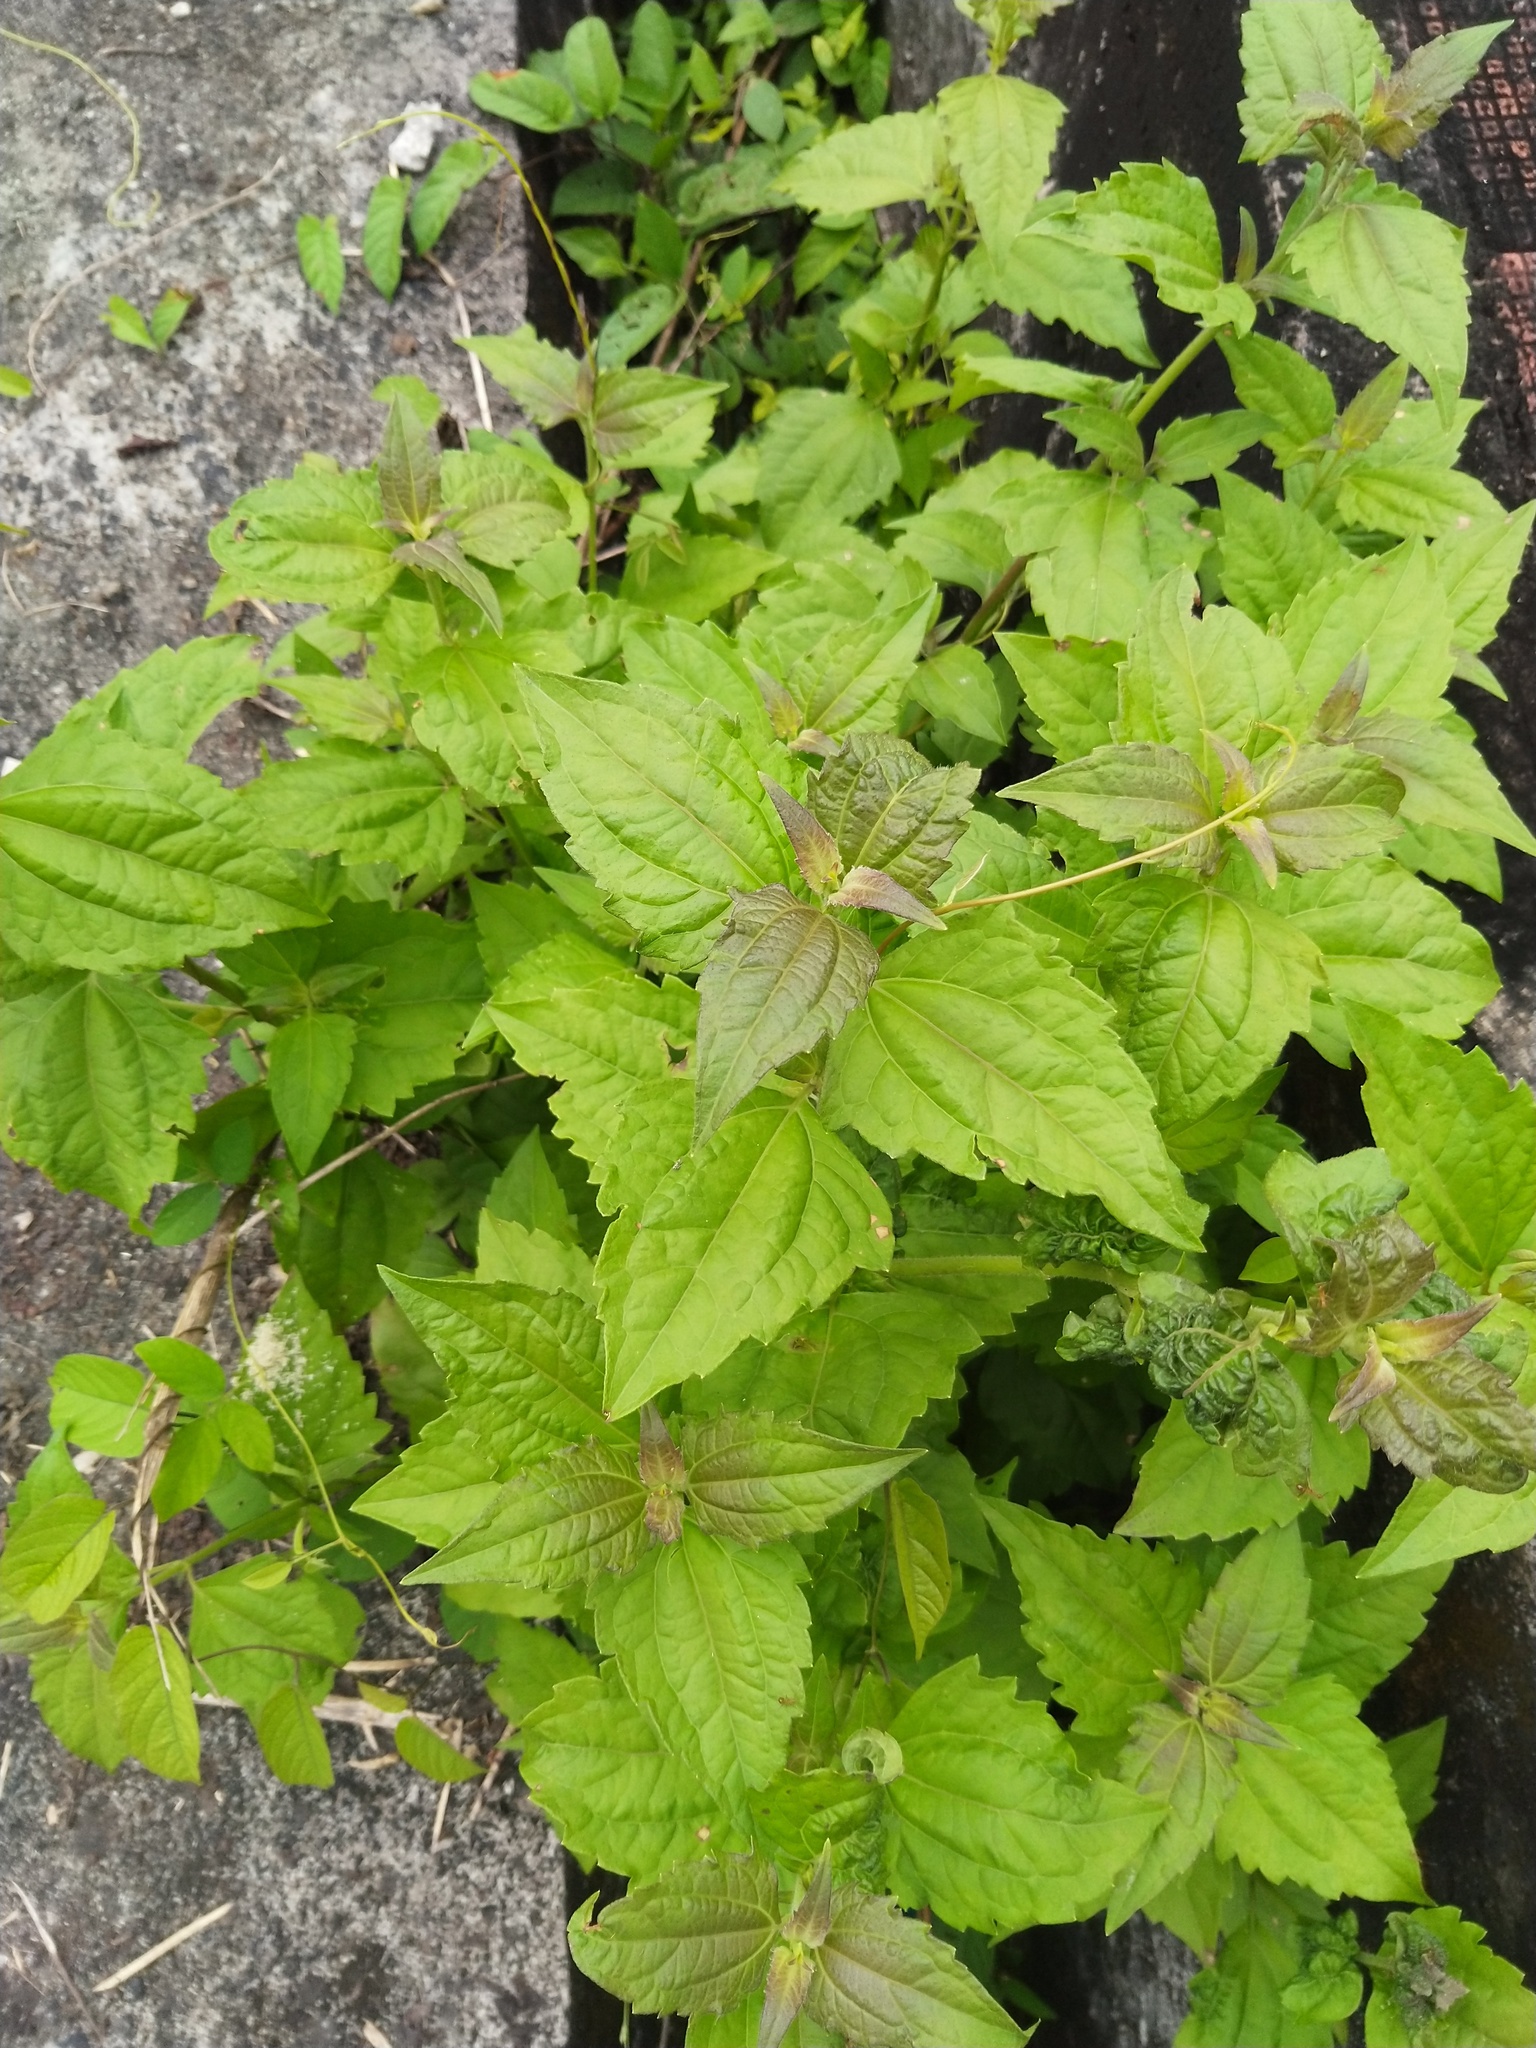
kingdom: Plantae
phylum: Tracheophyta
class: Magnoliopsida
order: Asterales
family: Asteraceae
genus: Chromolaena
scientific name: Chromolaena odorata
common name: Siamweed
